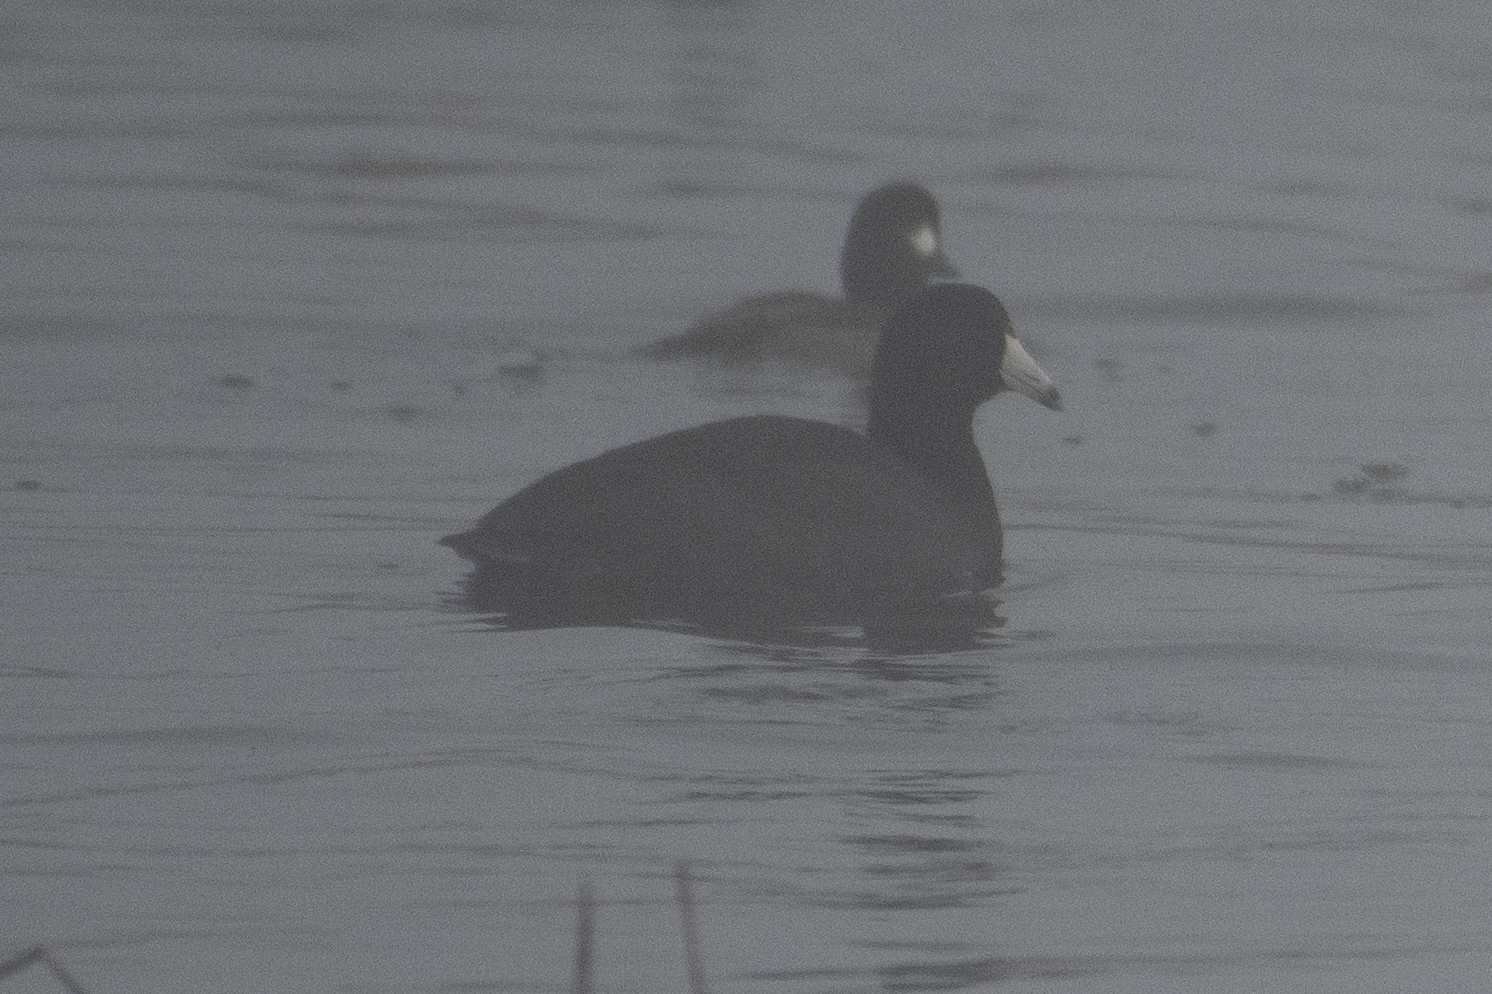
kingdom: Animalia
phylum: Chordata
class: Aves
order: Gruiformes
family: Rallidae
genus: Fulica
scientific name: Fulica americana
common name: American coot
